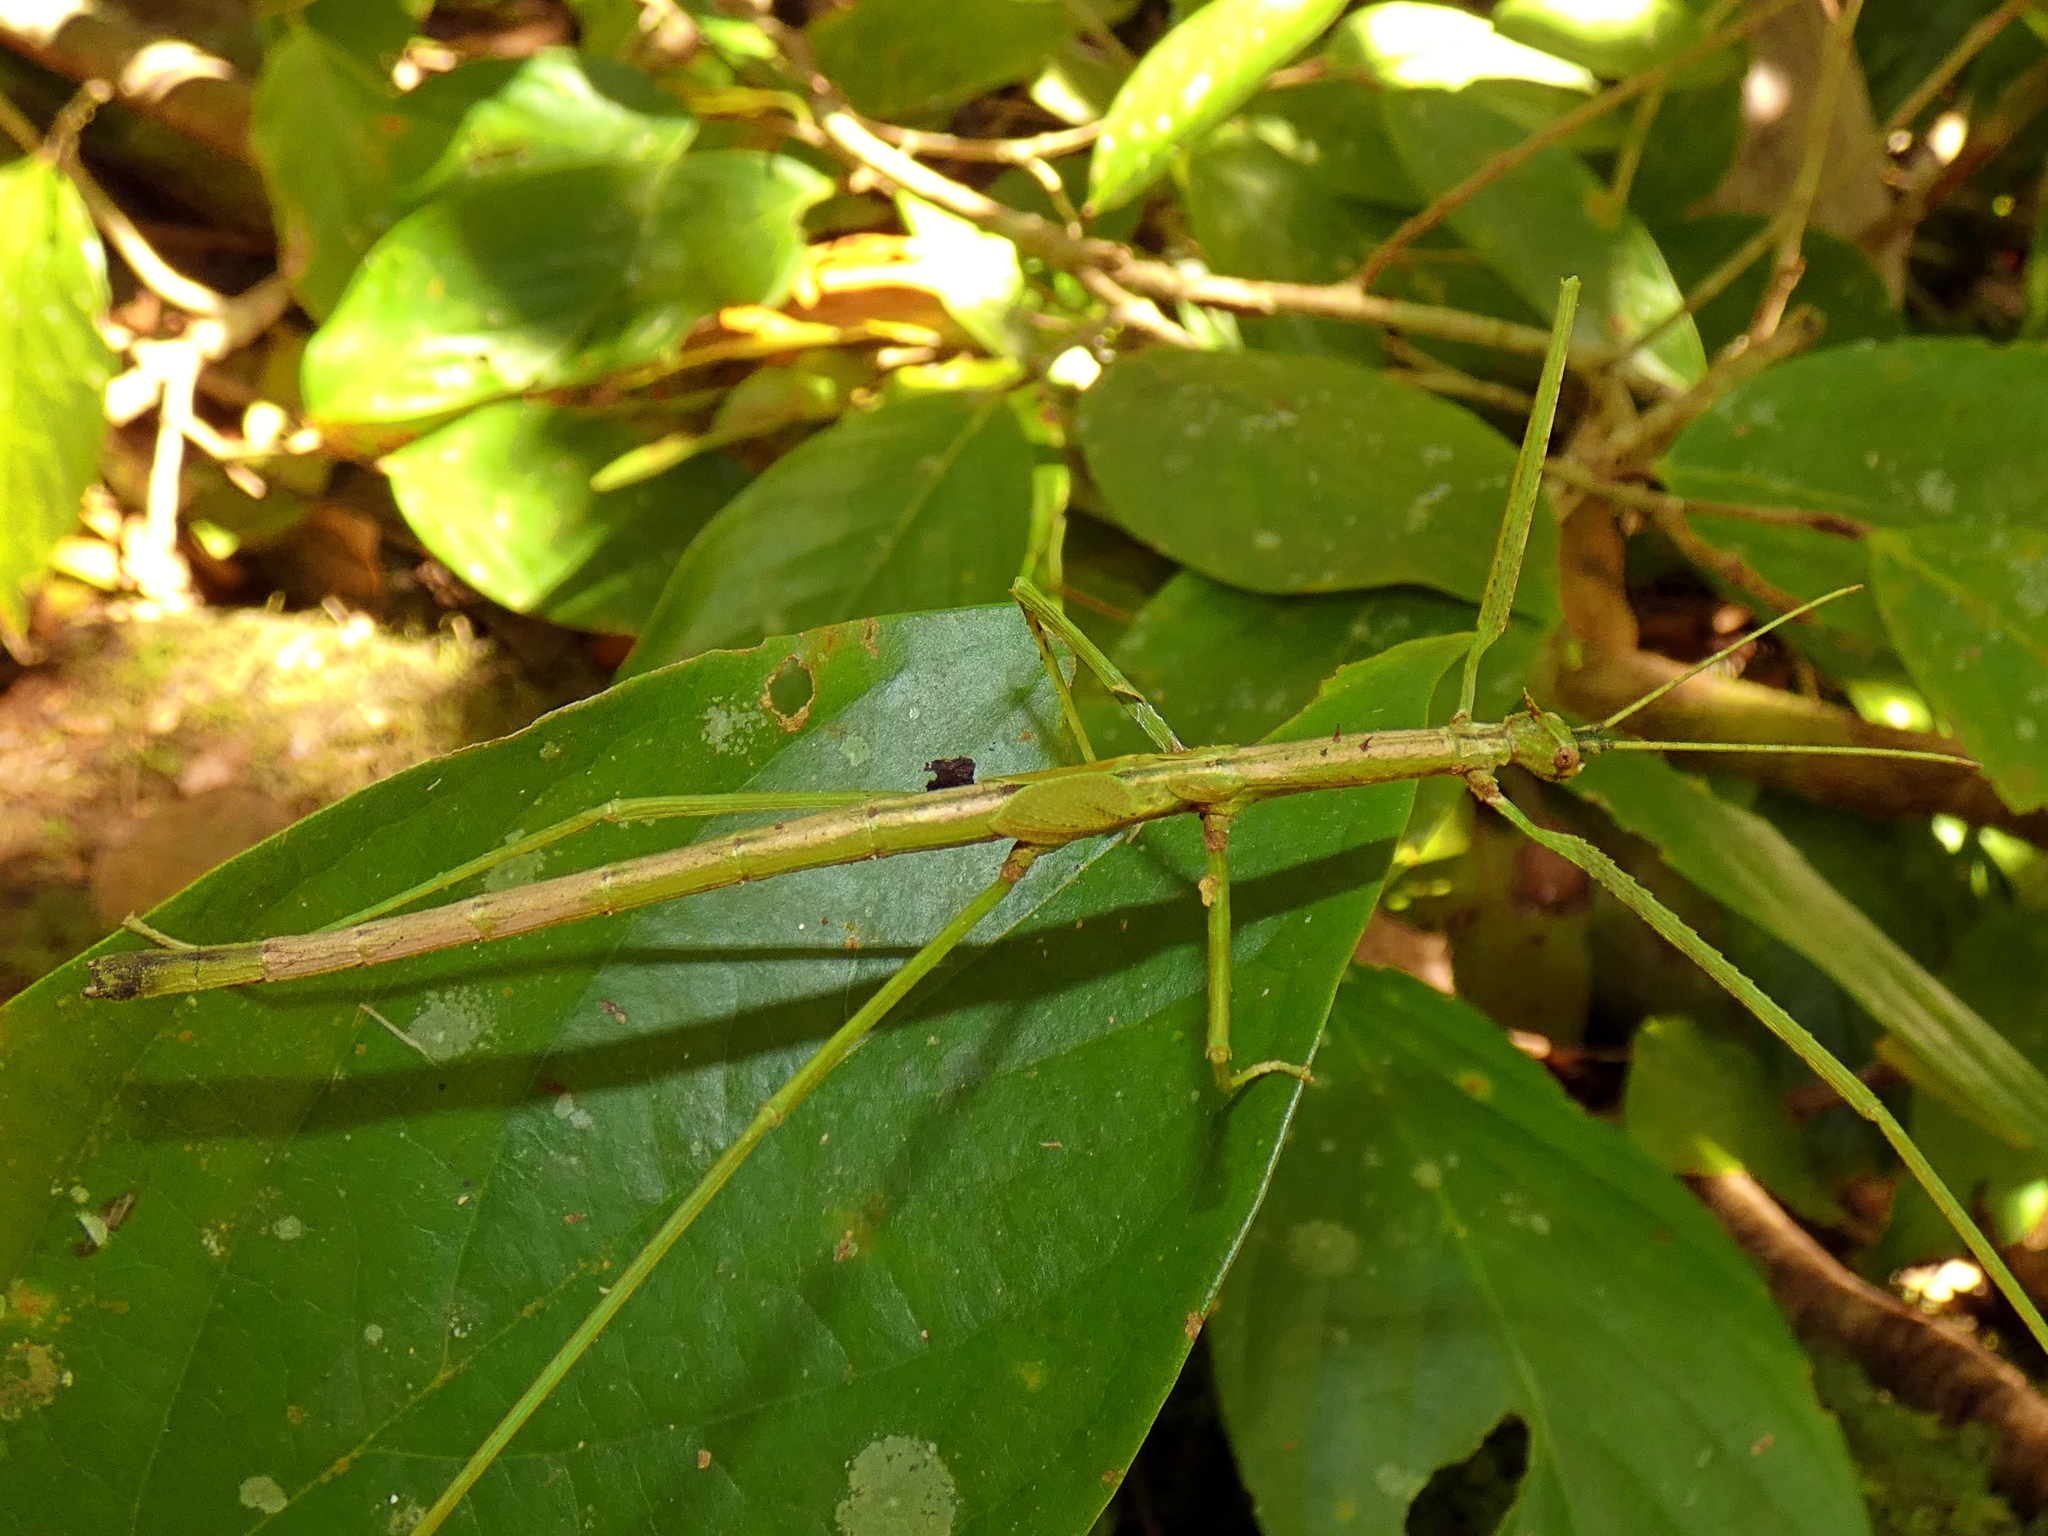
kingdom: Animalia
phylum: Arthropoda
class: Insecta
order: Phasmida
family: Phasmatidae
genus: Onchestus
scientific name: Onchestus rentzi
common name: Rentz's stick-insect
